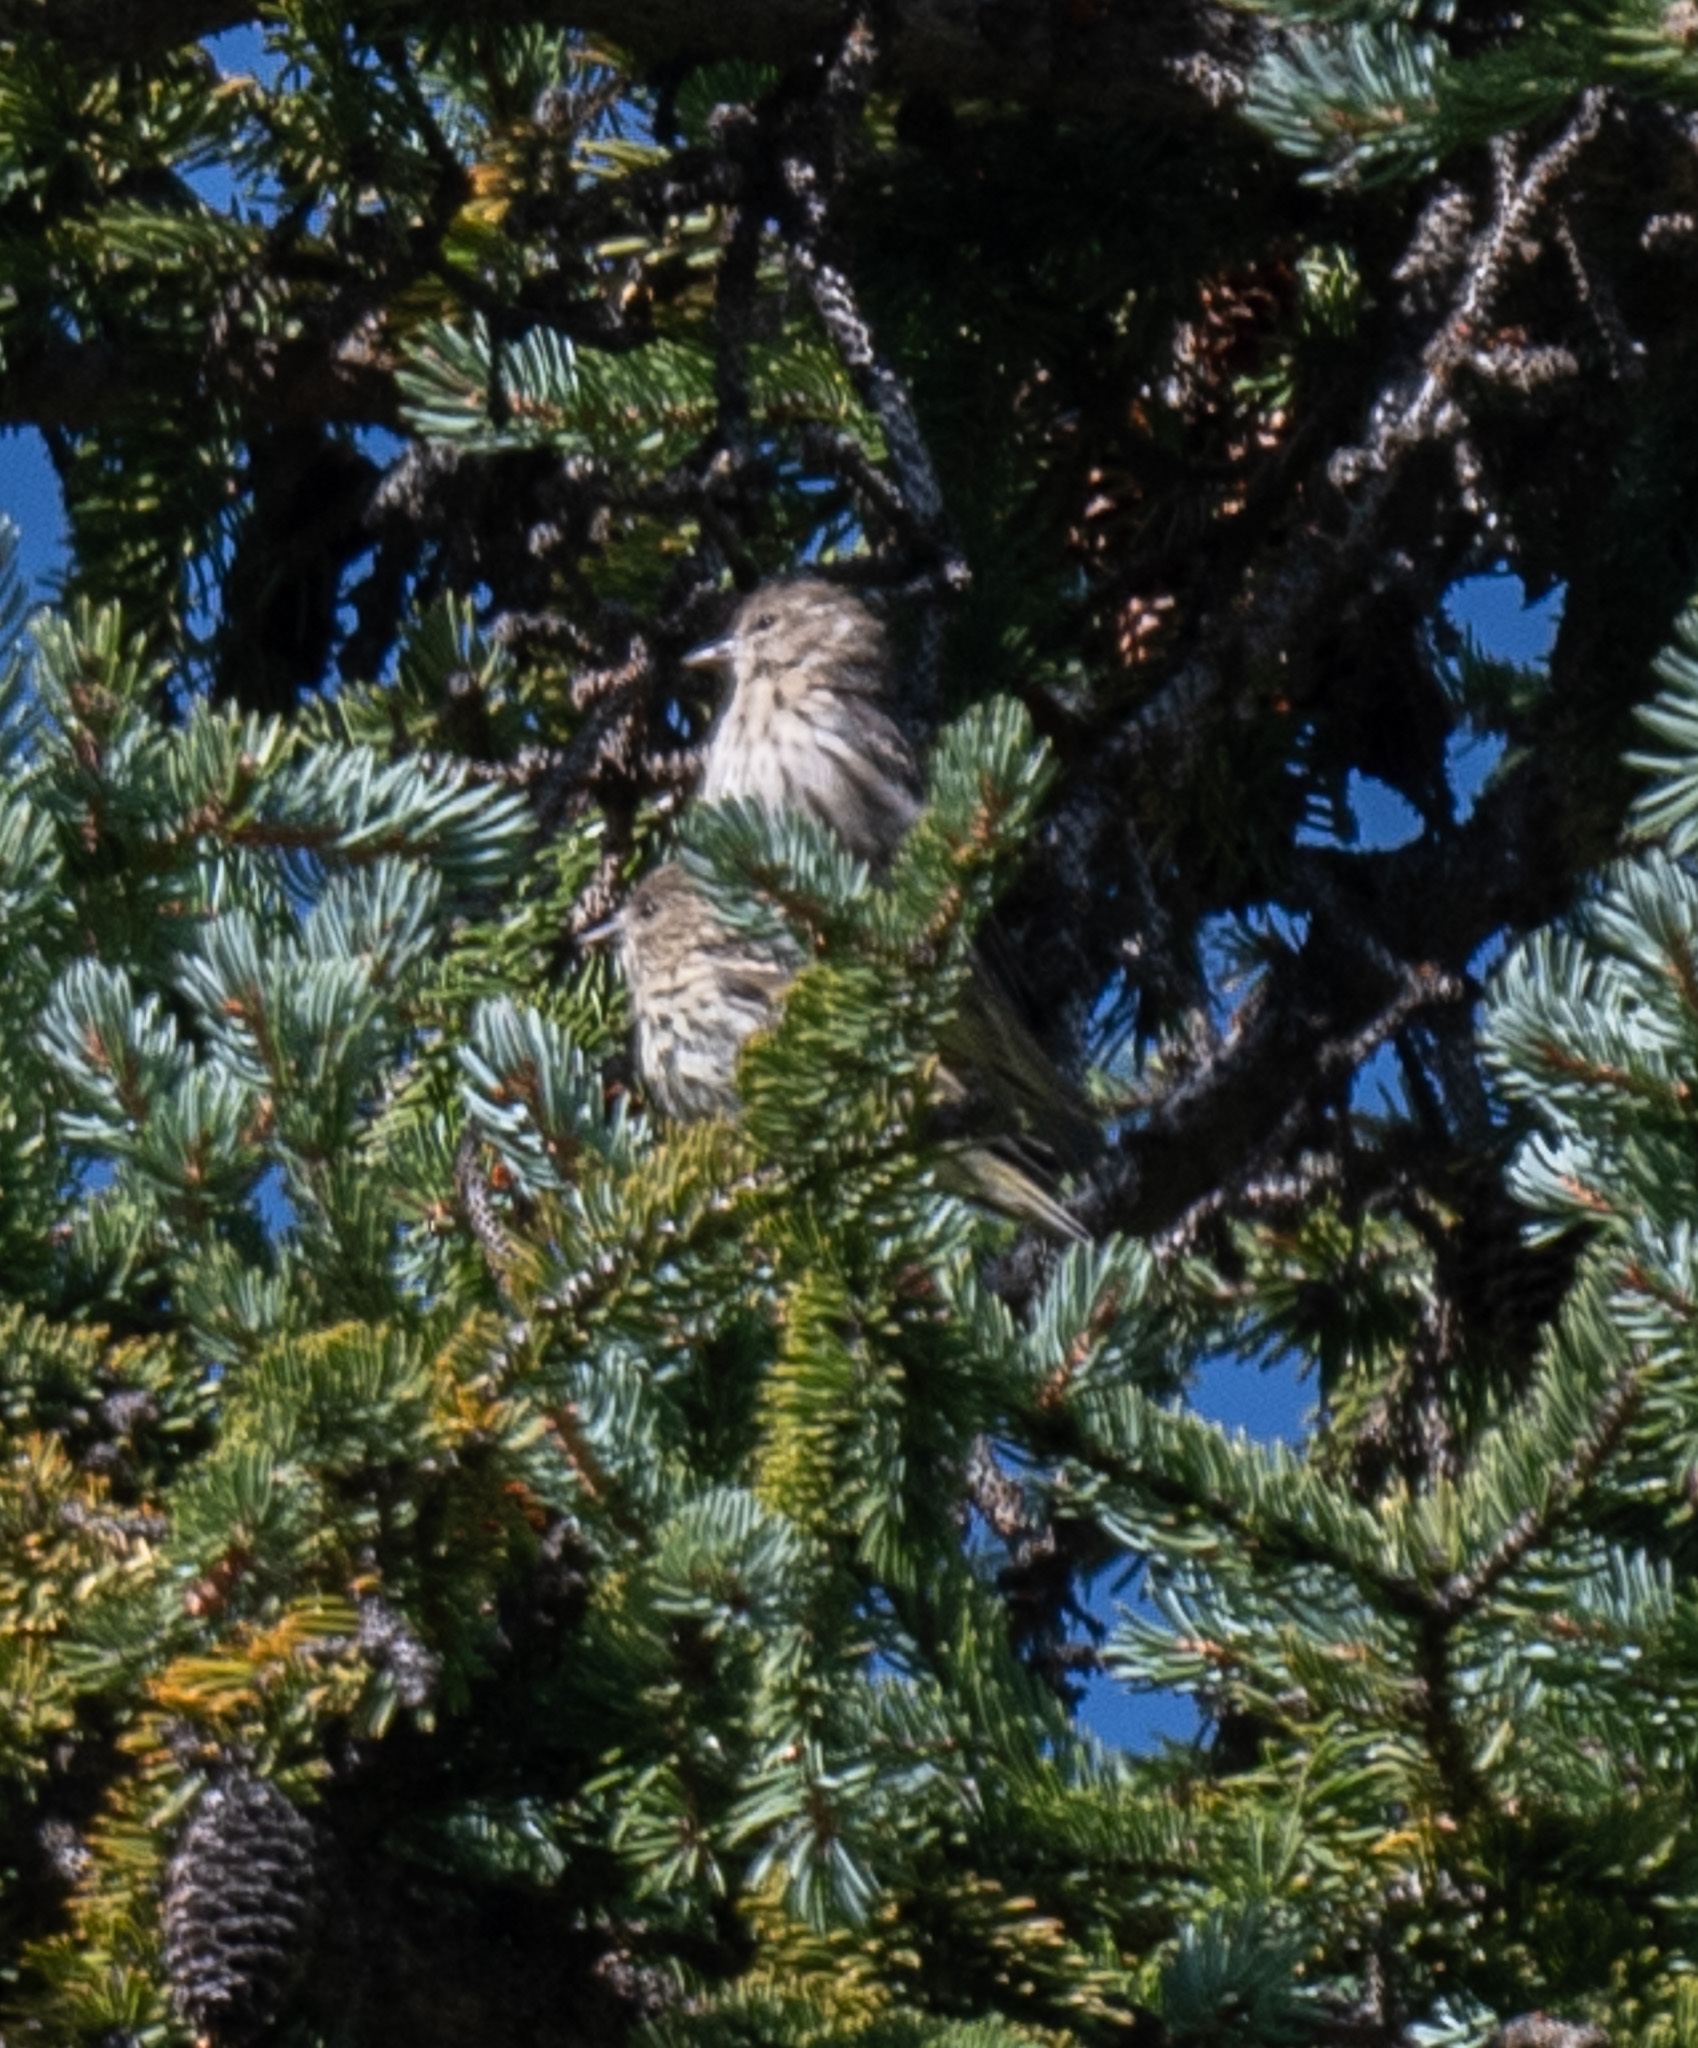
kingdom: Animalia
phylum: Chordata
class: Aves
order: Passeriformes
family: Fringillidae
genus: Spinus
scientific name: Spinus pinus
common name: Pine siskin
